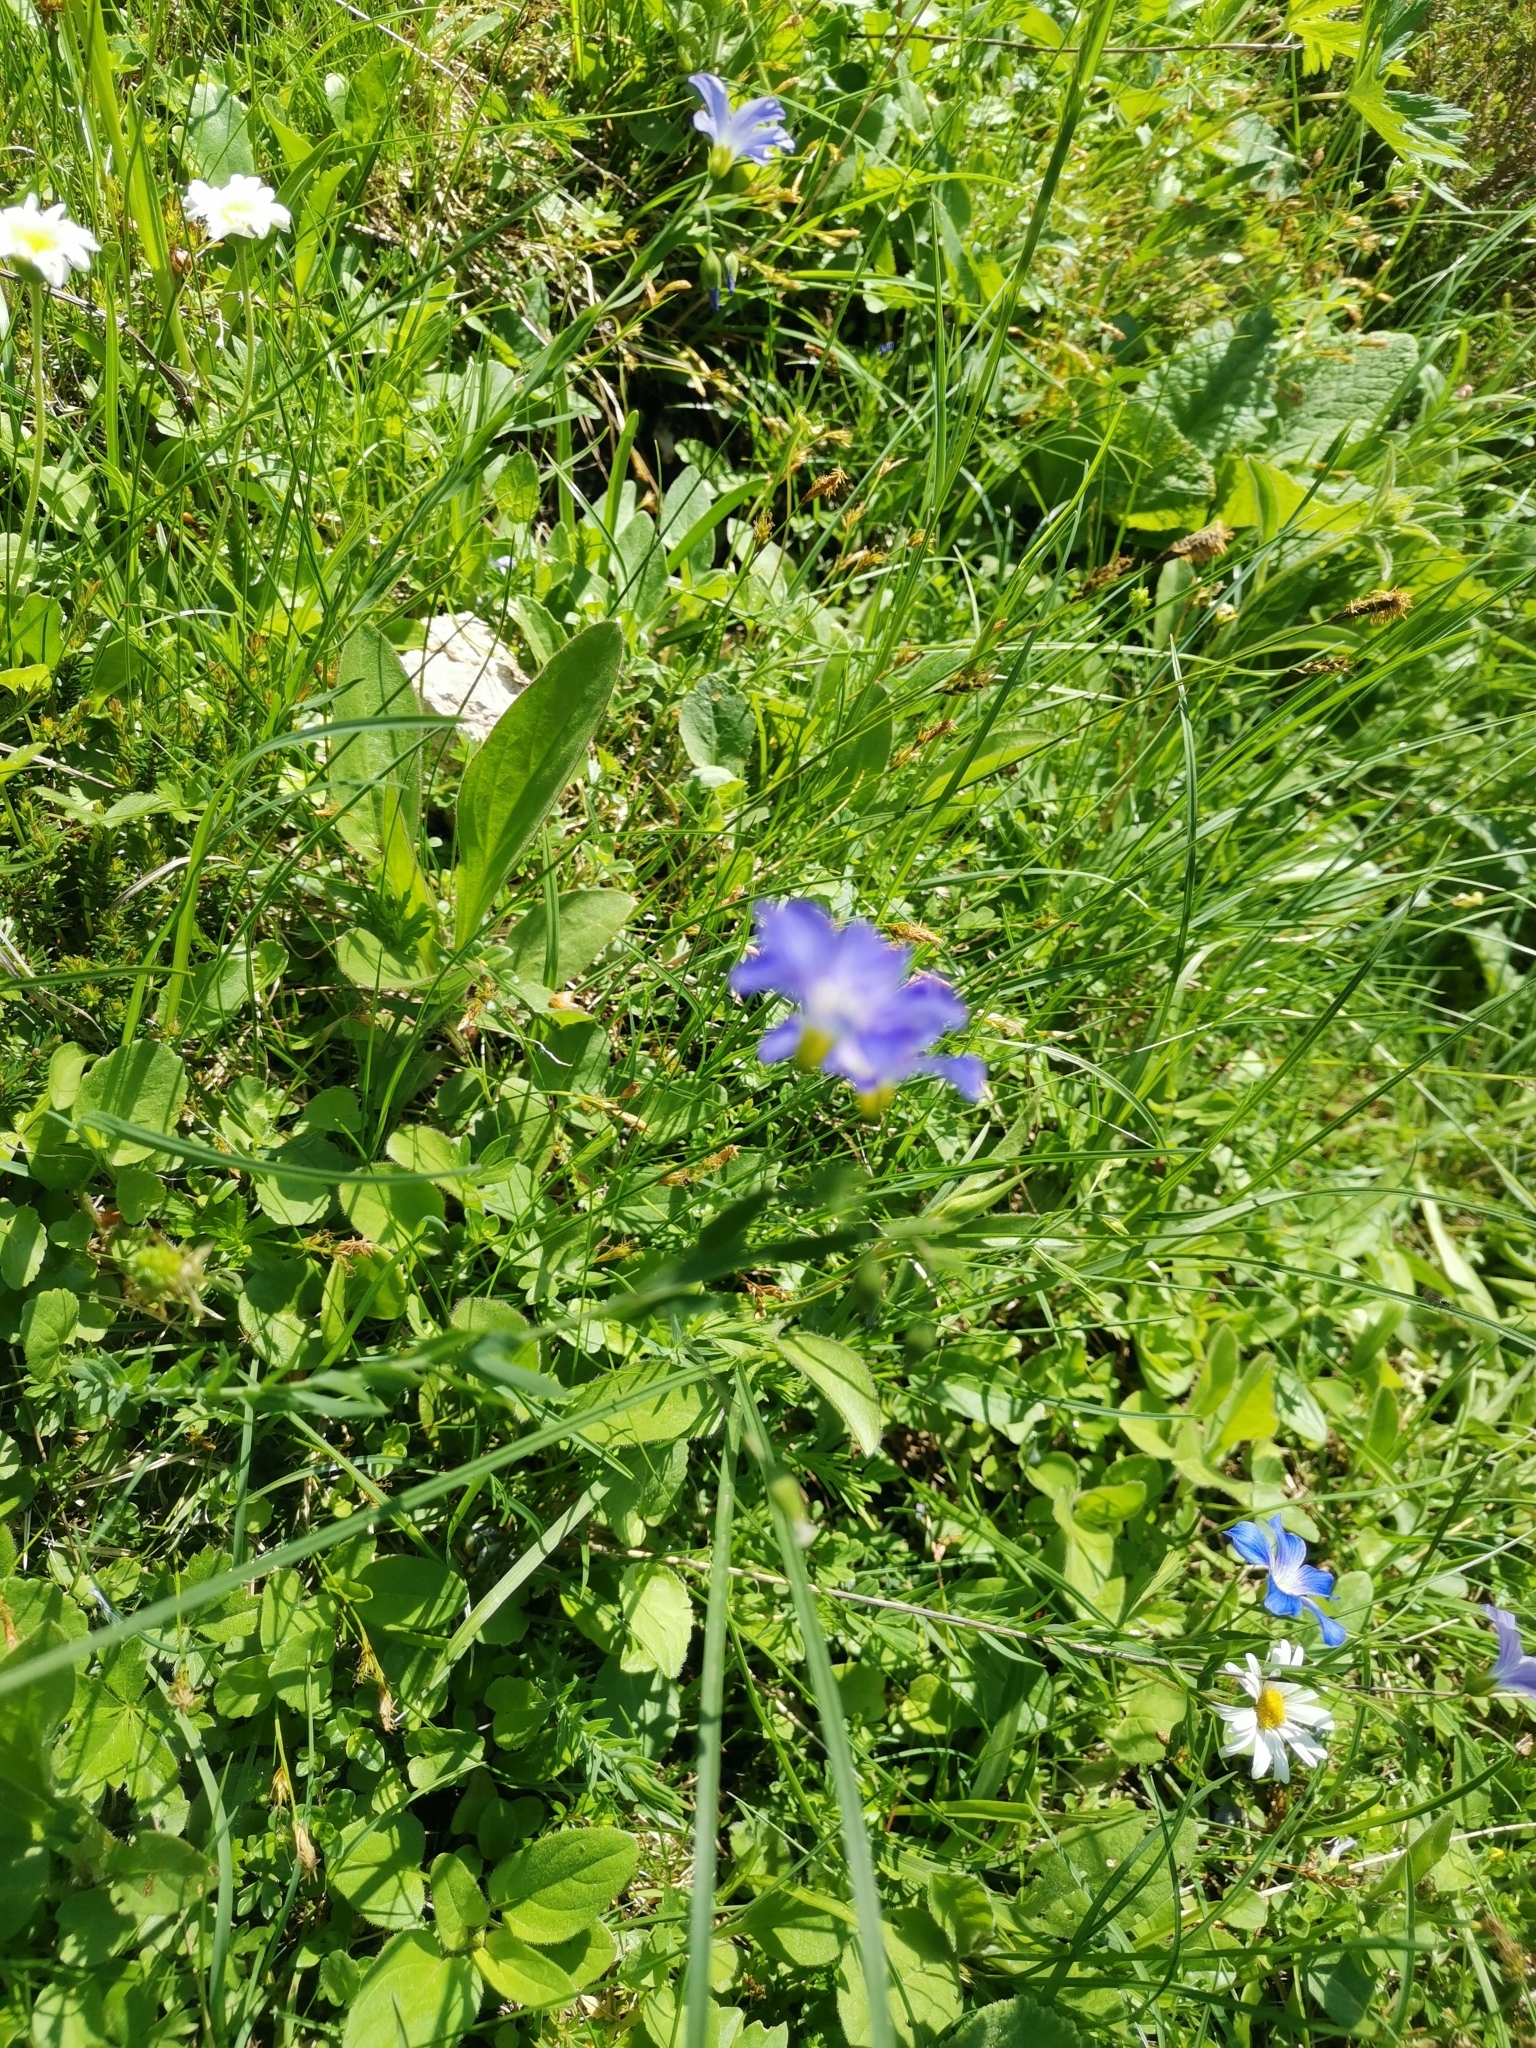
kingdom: Plantae
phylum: Tracheophyta
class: Magnoliopsida
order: Malpighiales
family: Linaceae
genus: Linum
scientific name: Linum alpinum
